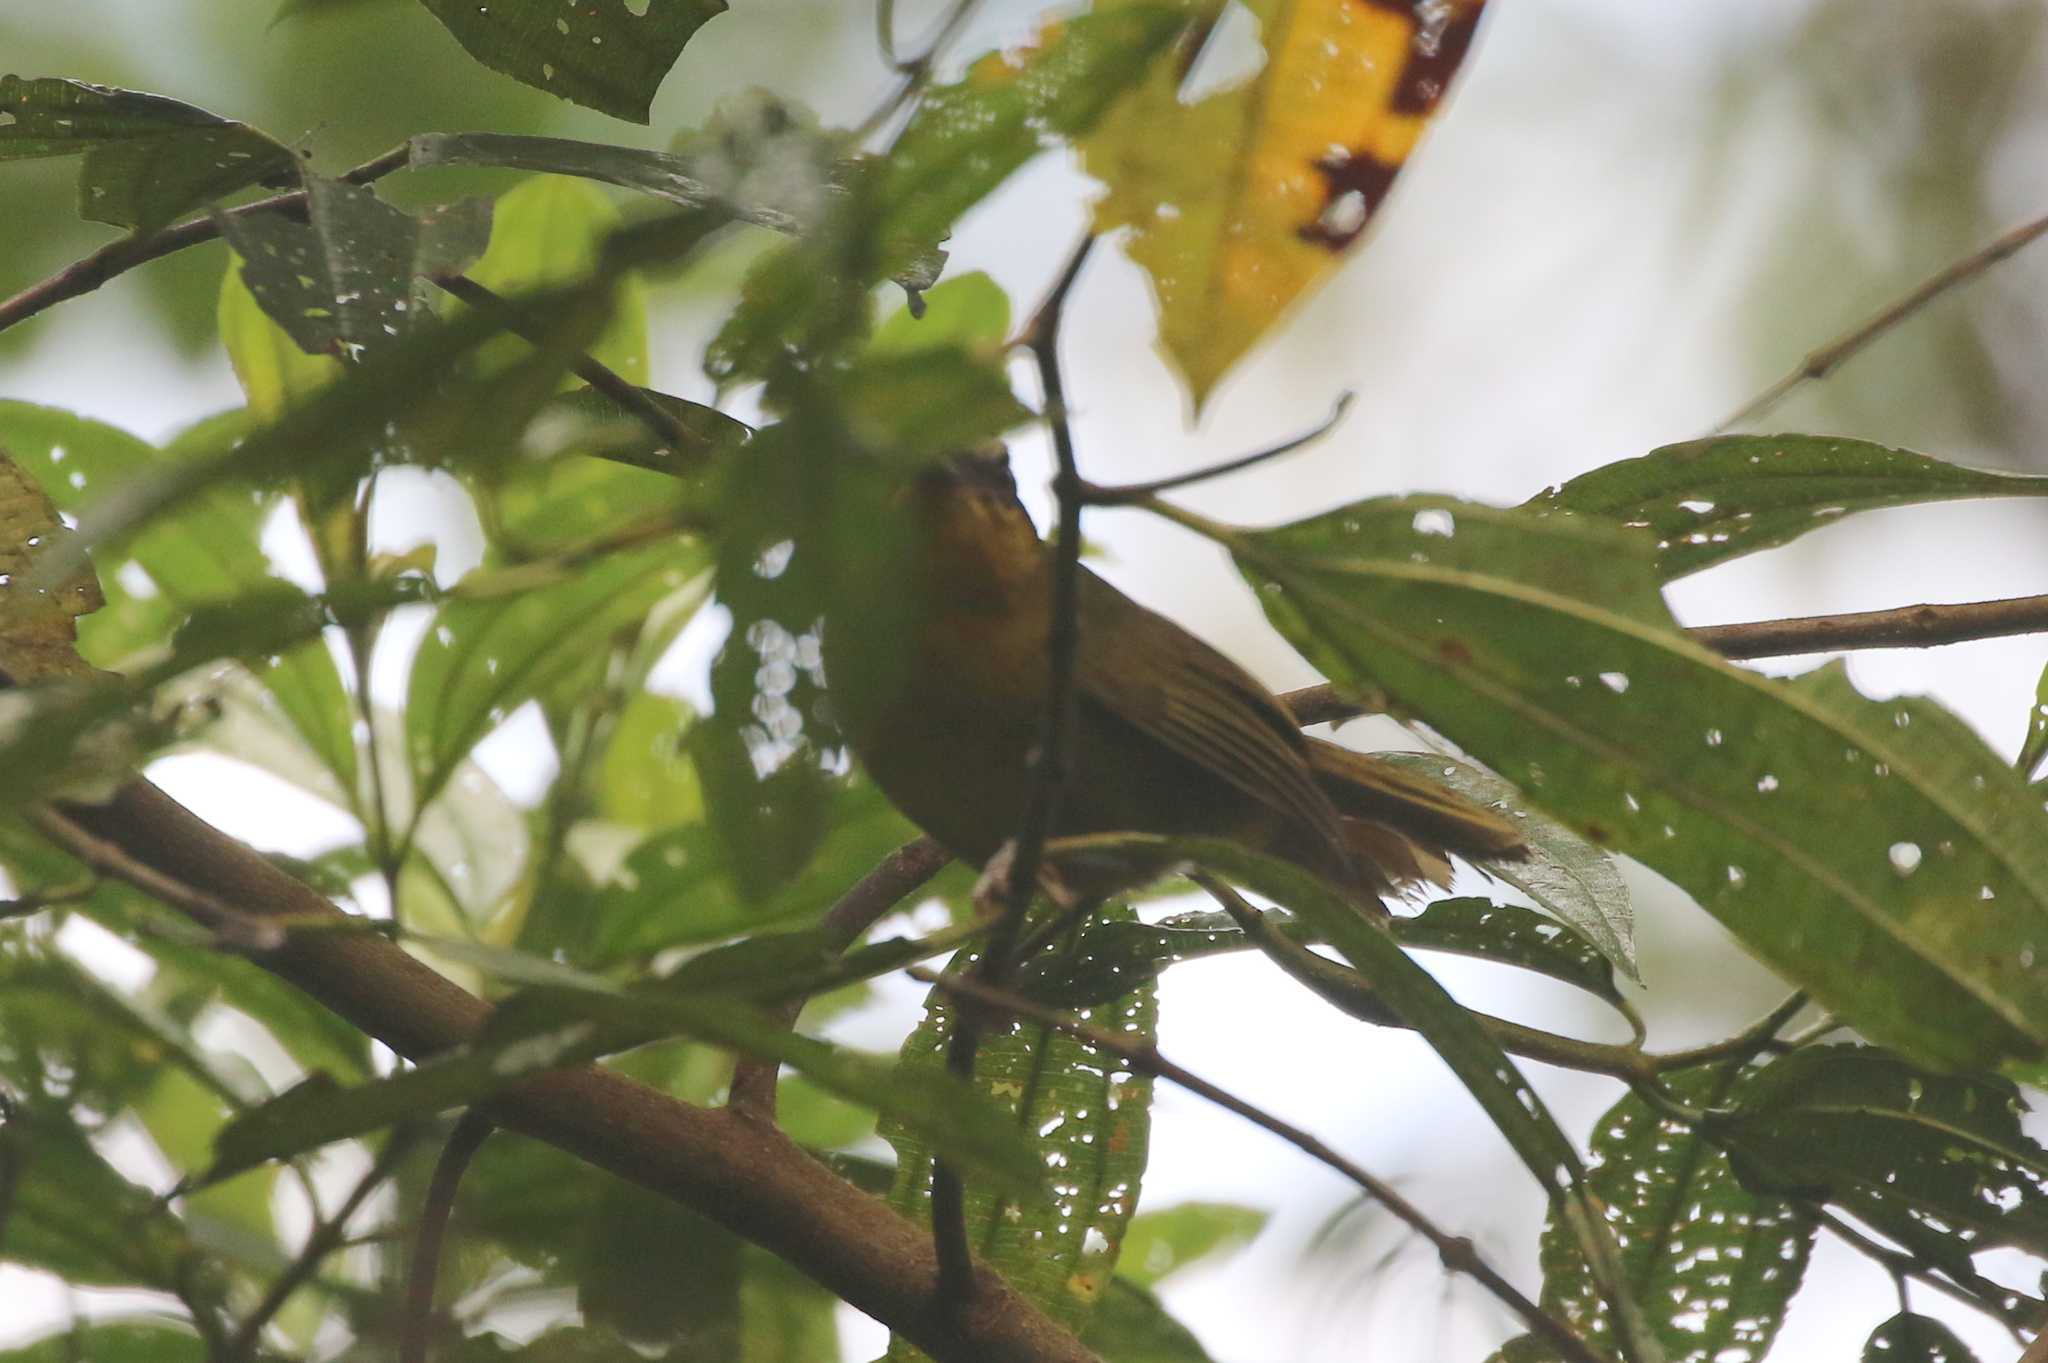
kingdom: Animalia
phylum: Chordata
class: Aves
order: Passeriformes
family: Thraupidae
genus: Kleinothraupis
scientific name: Kleinothraupis atropileus
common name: Black-capped hemispingus
